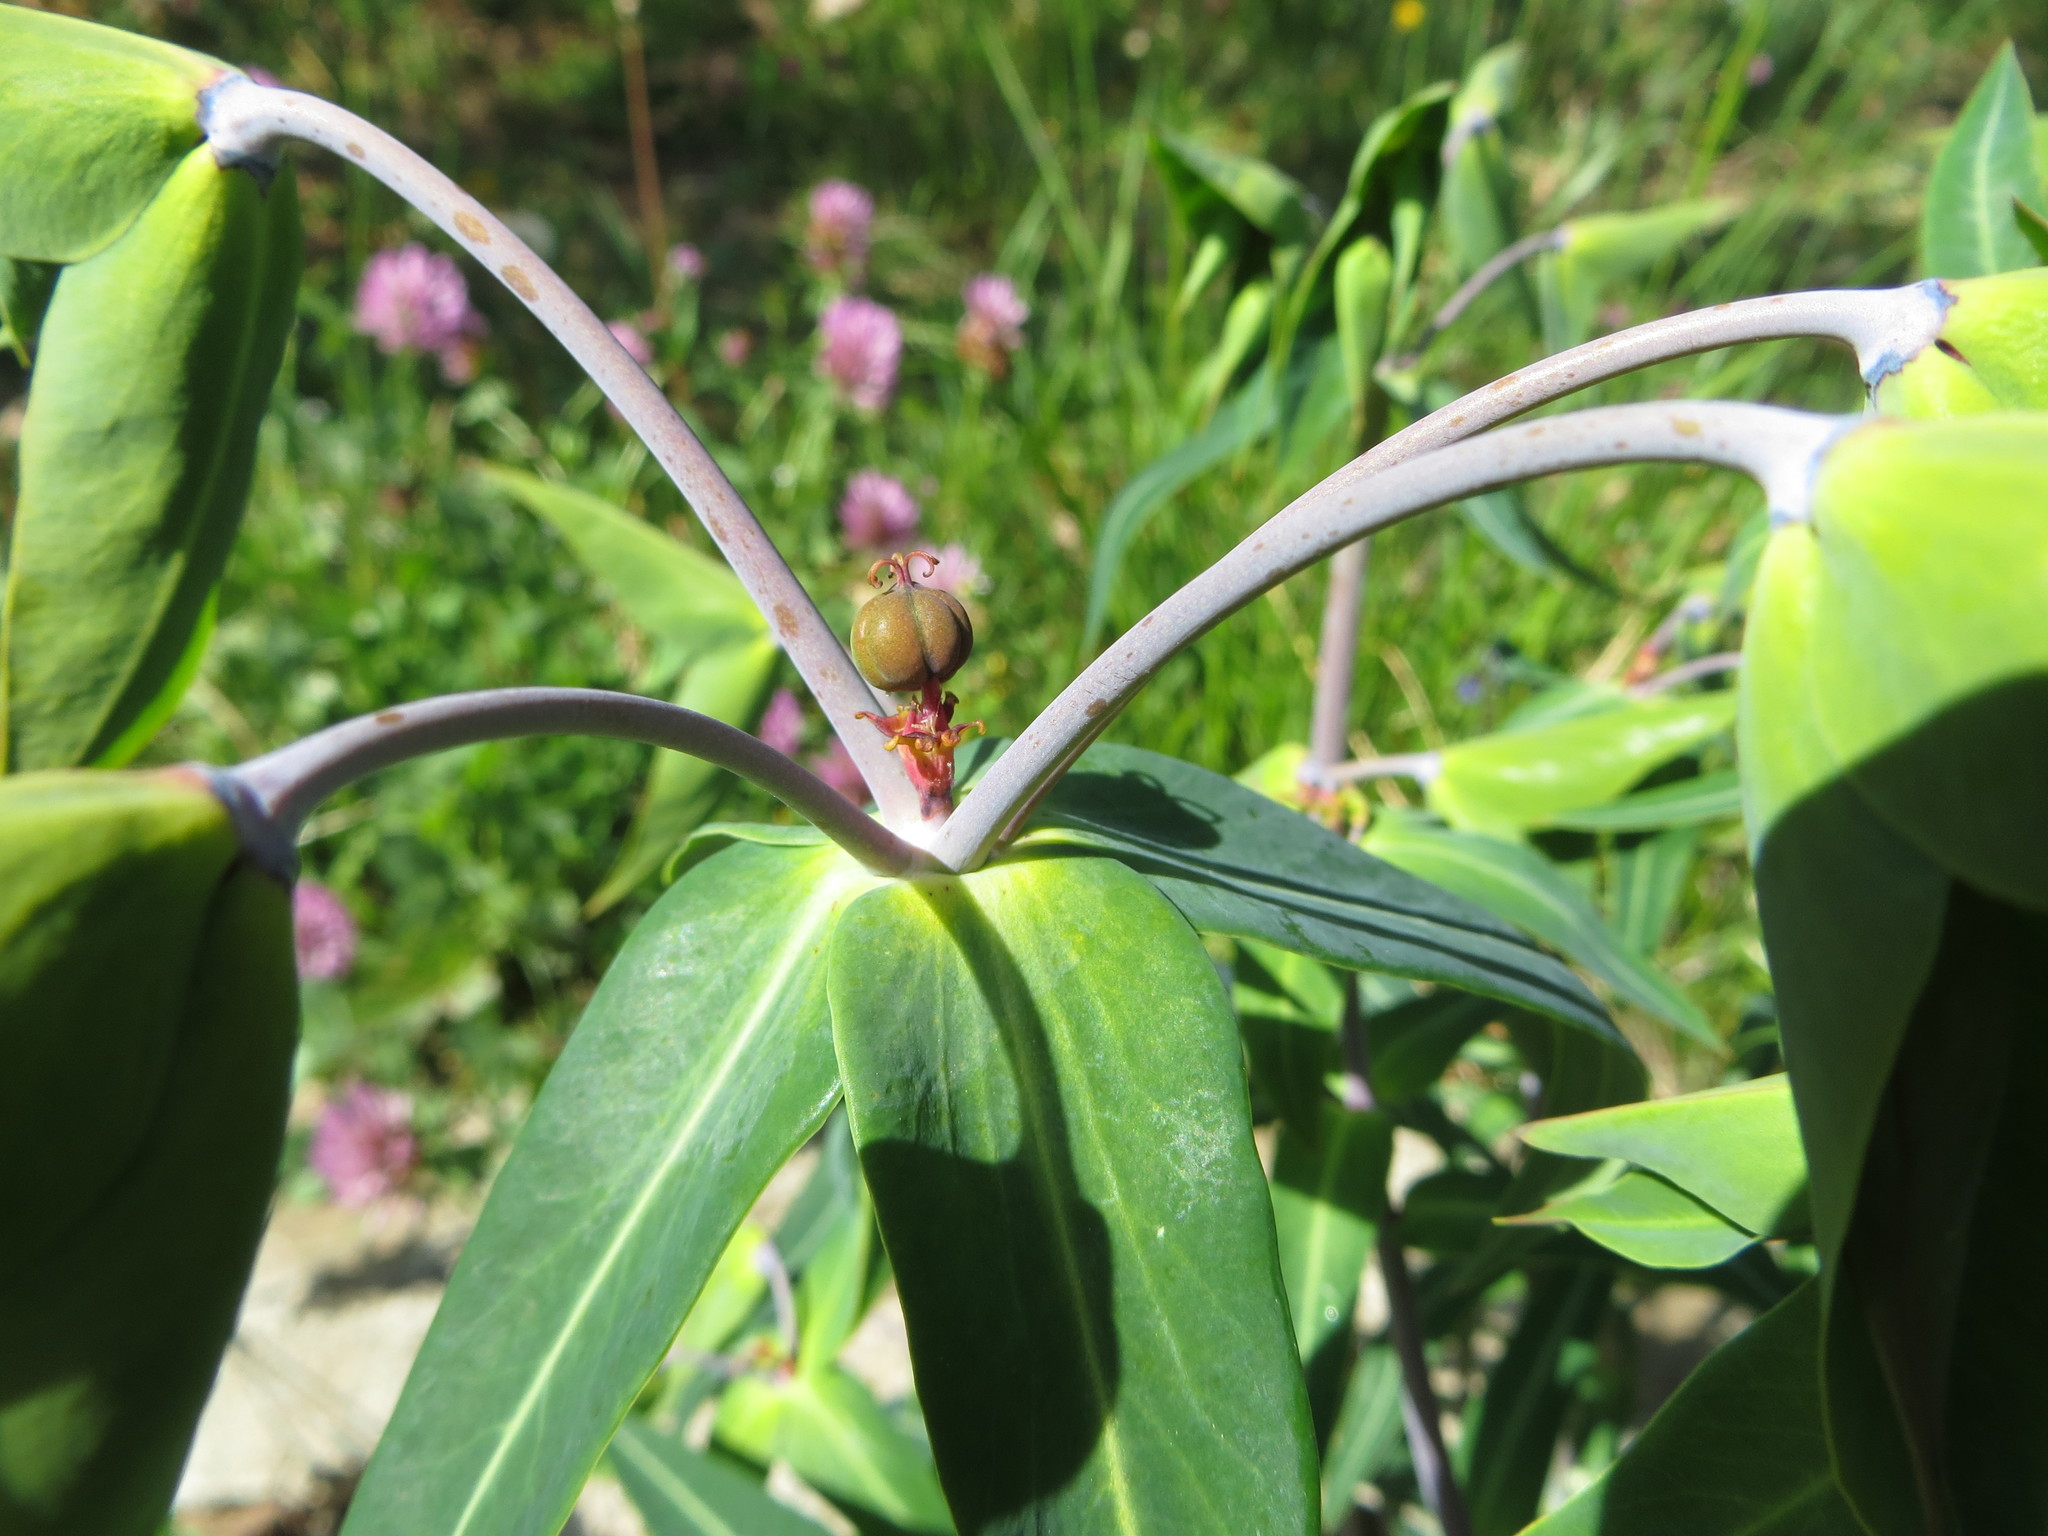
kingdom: Plantae
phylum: Tracheophyta
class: Magnoliopsida
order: Malpighiales
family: Euphorbiaceae
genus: Euphorbia
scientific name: Euphorbia lathyris
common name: Caper spurge
